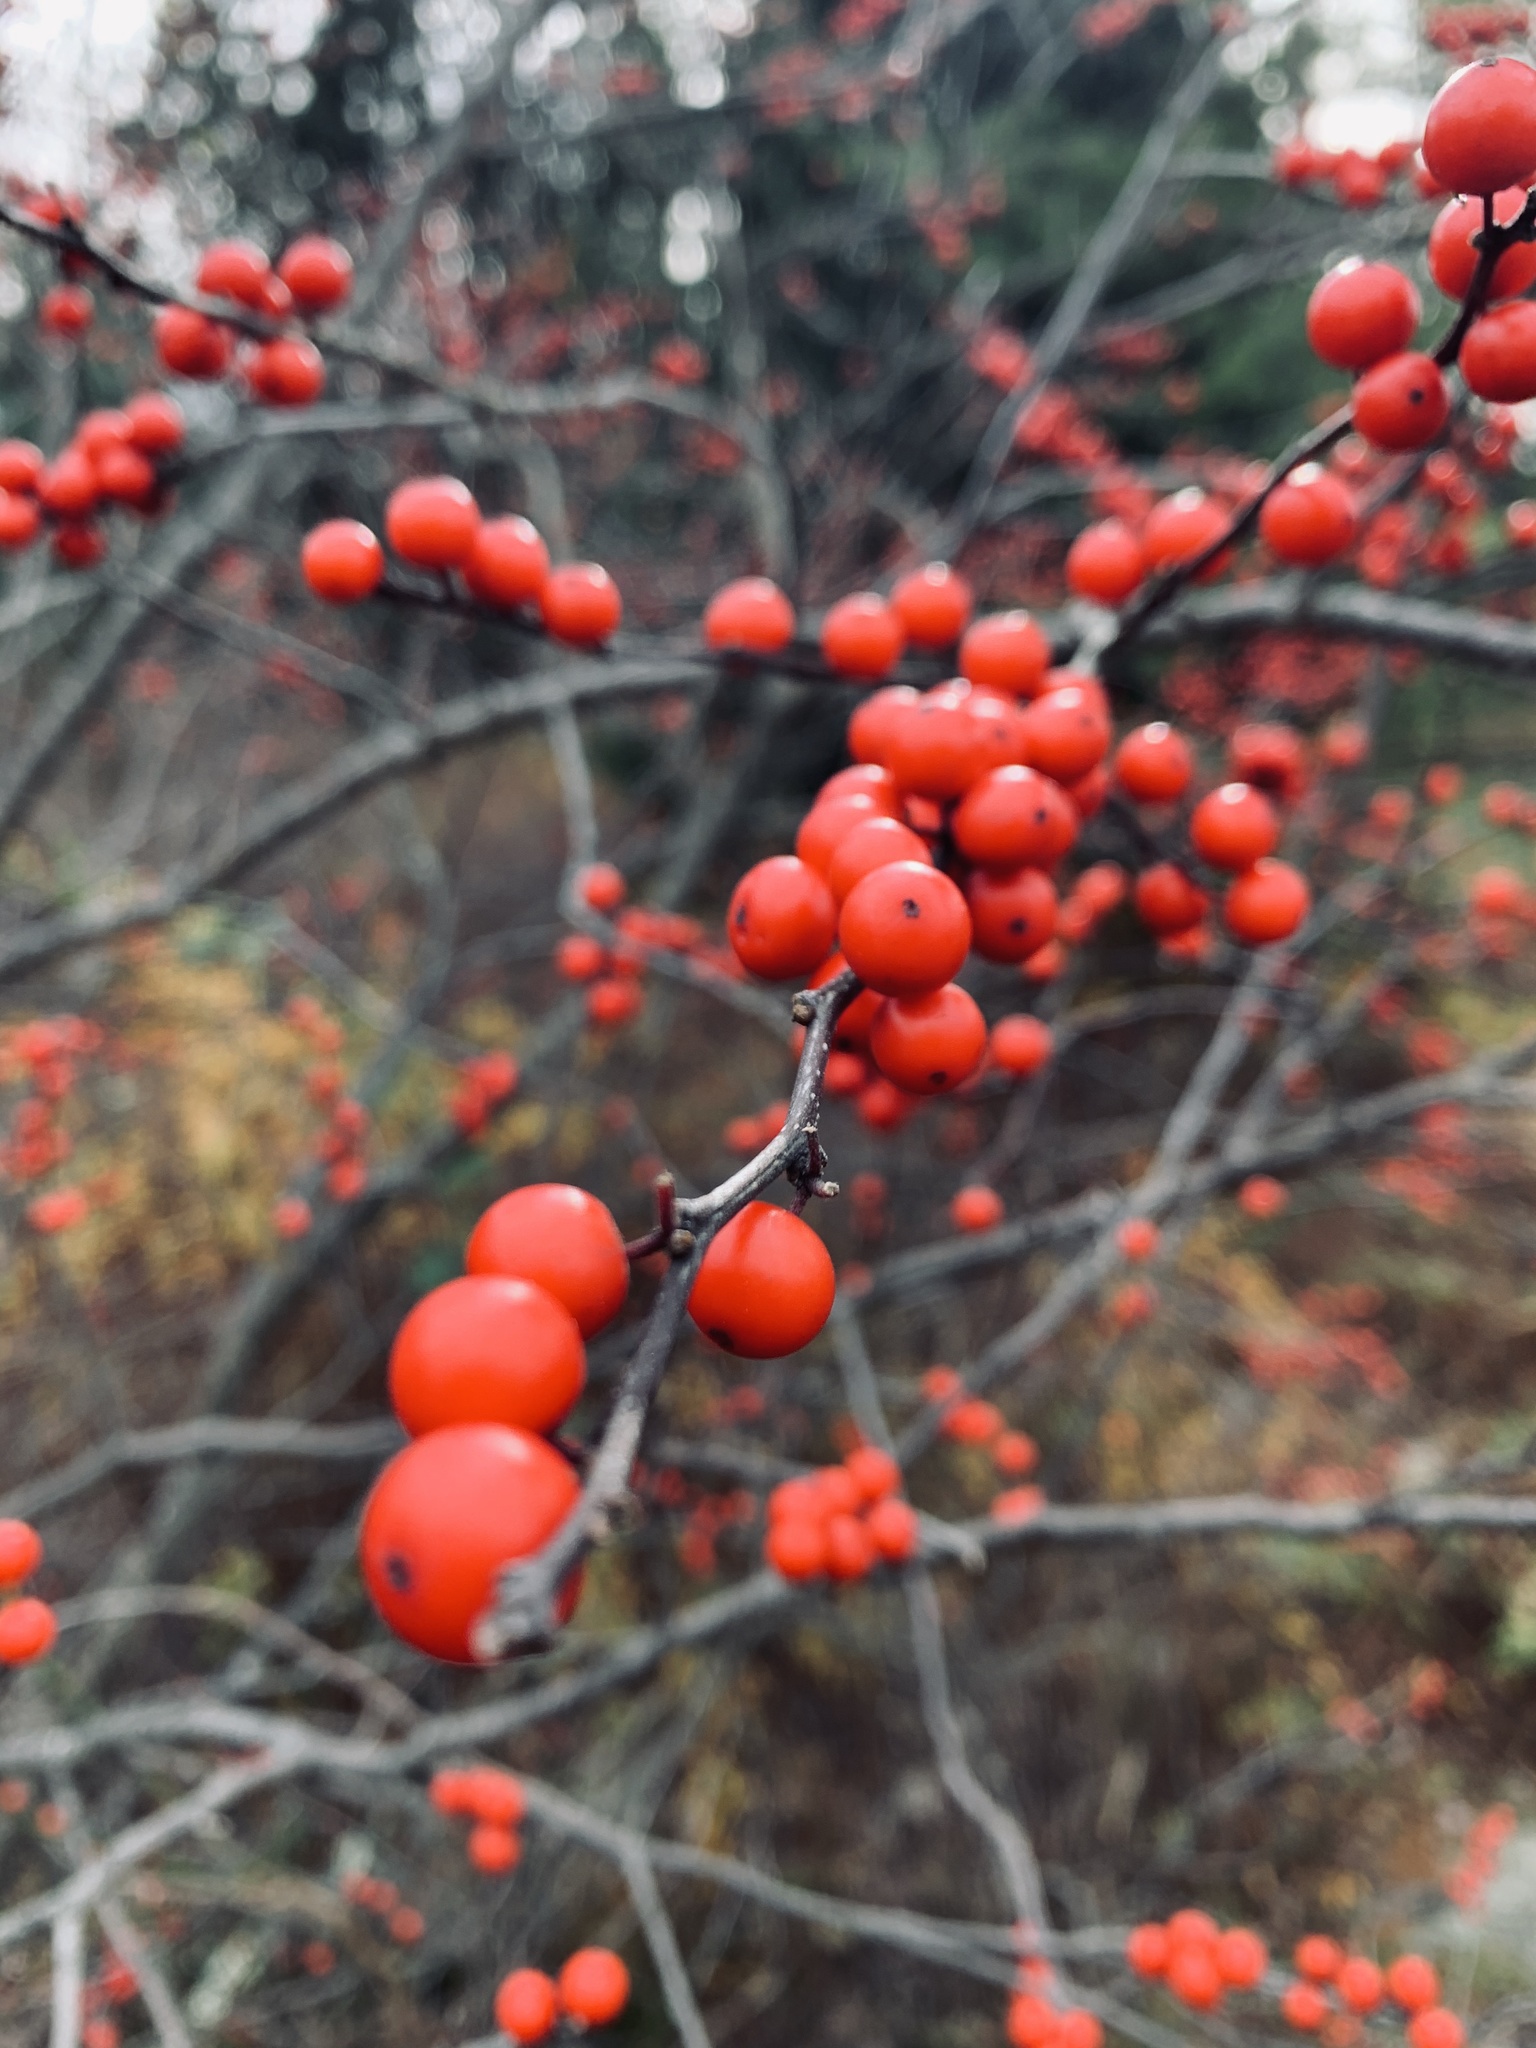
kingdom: Plantae
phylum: Tracheophyta
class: Magnoliopsida
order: Aquifoliales
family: Aquifoliaceae
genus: Ilex
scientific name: Ilex verticillata
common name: Virginia winterberry
